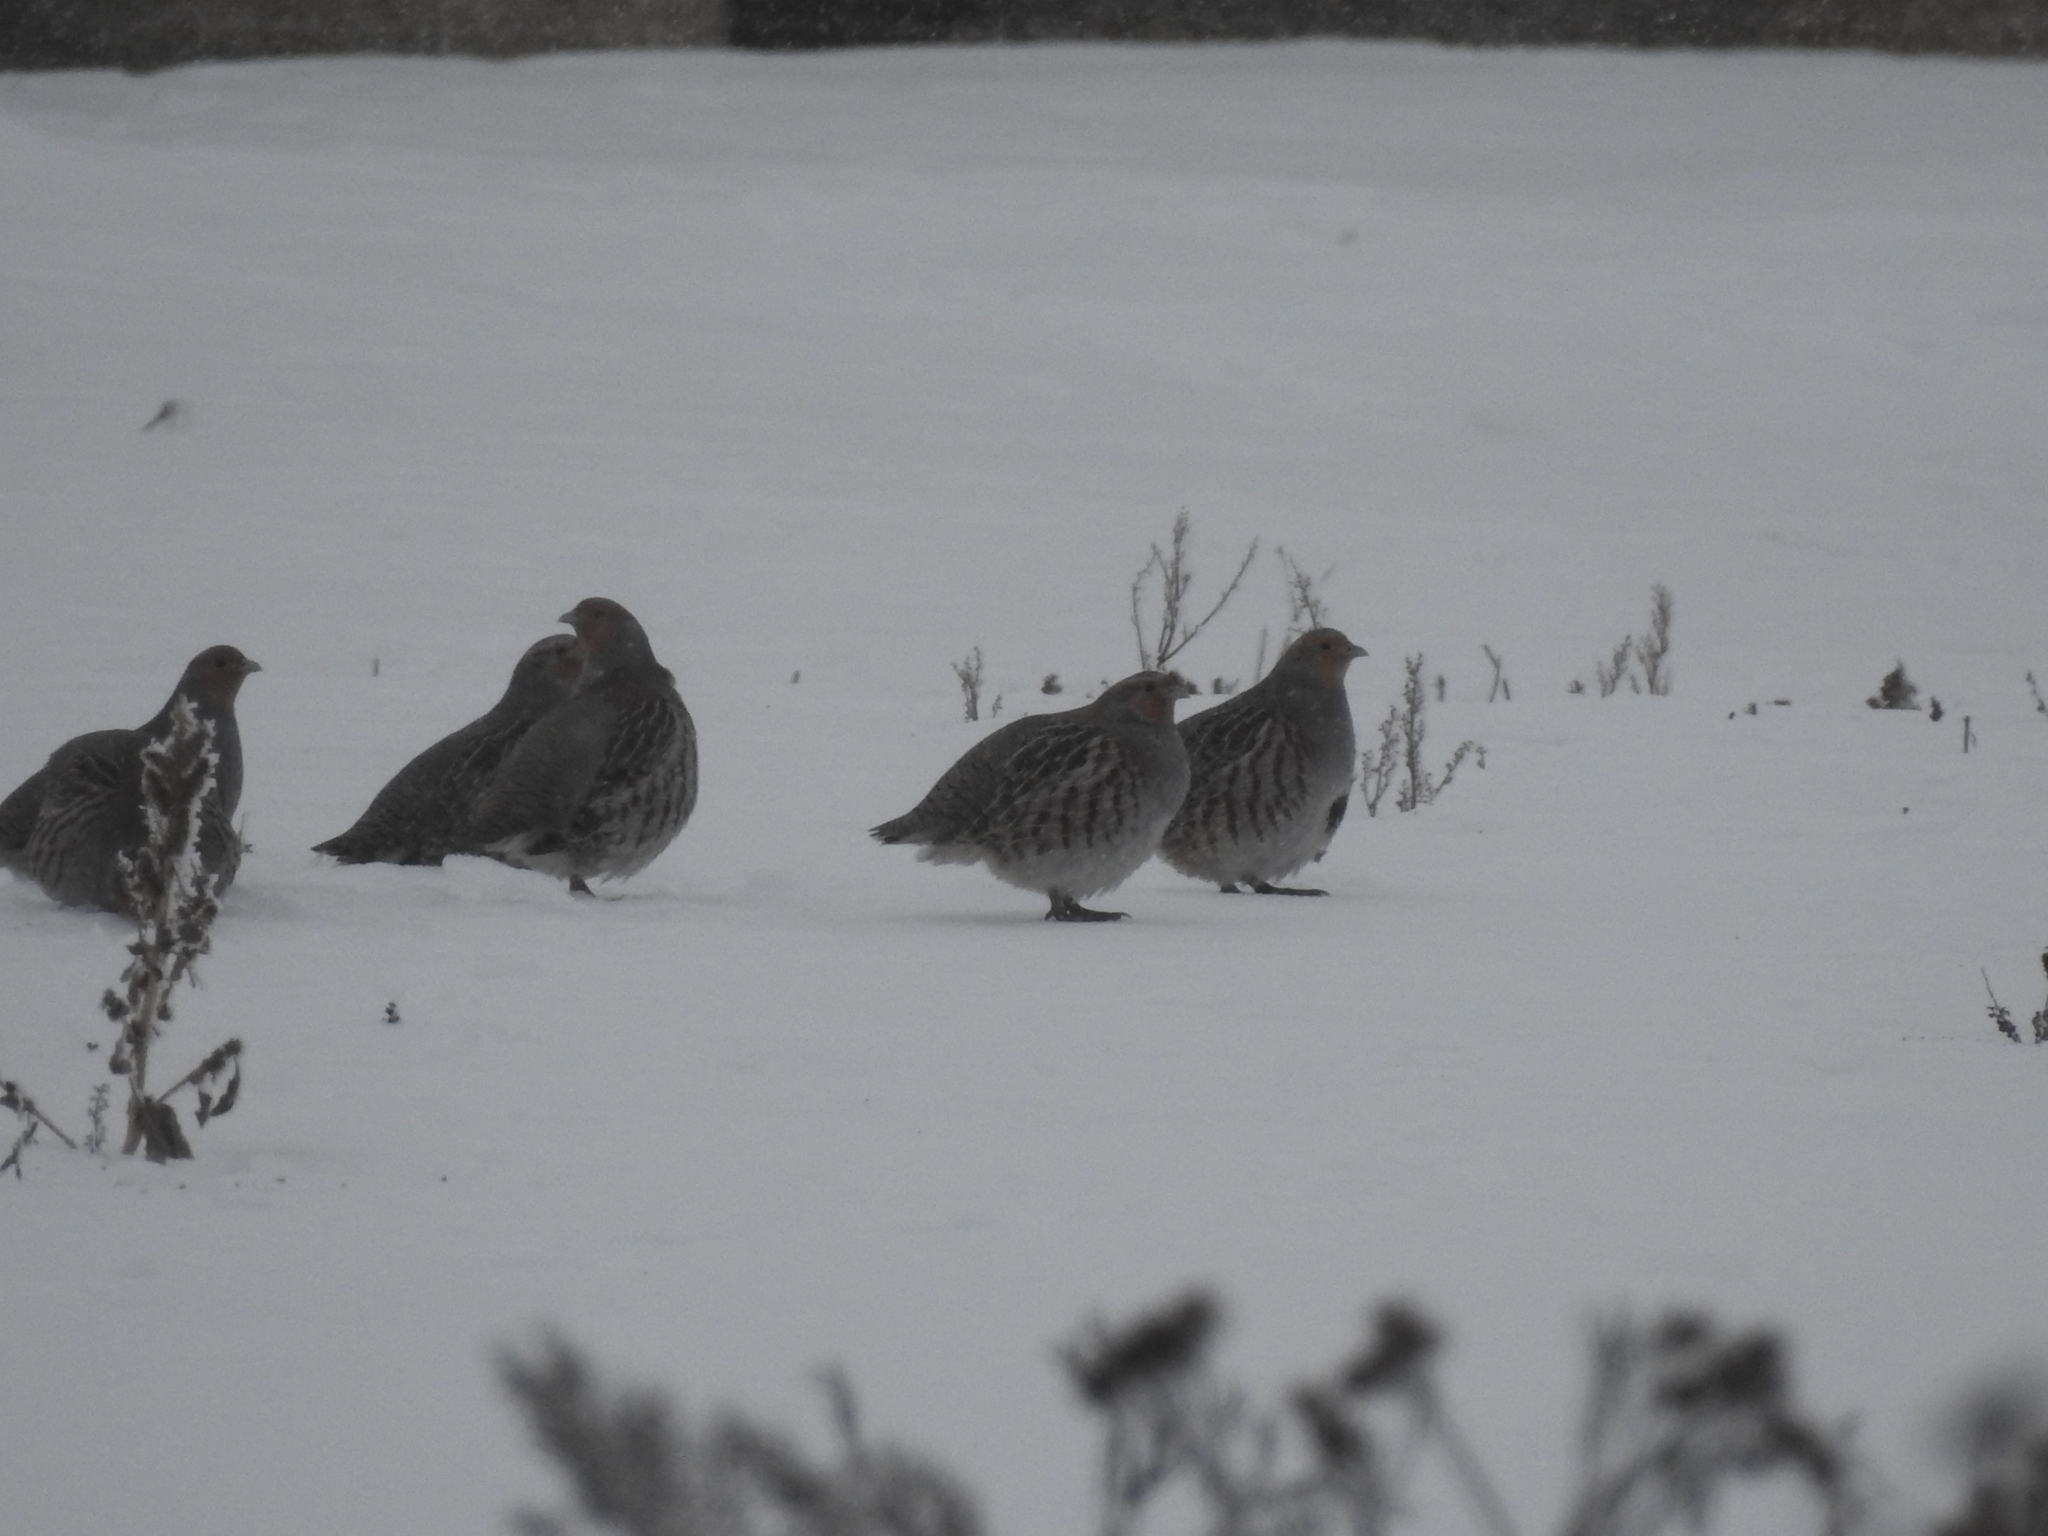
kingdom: Animalia
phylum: Chordata
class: Aves
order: Galliformes
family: Phasianidae
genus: Perdix
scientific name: Perdix perdix
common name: Grey partridge
